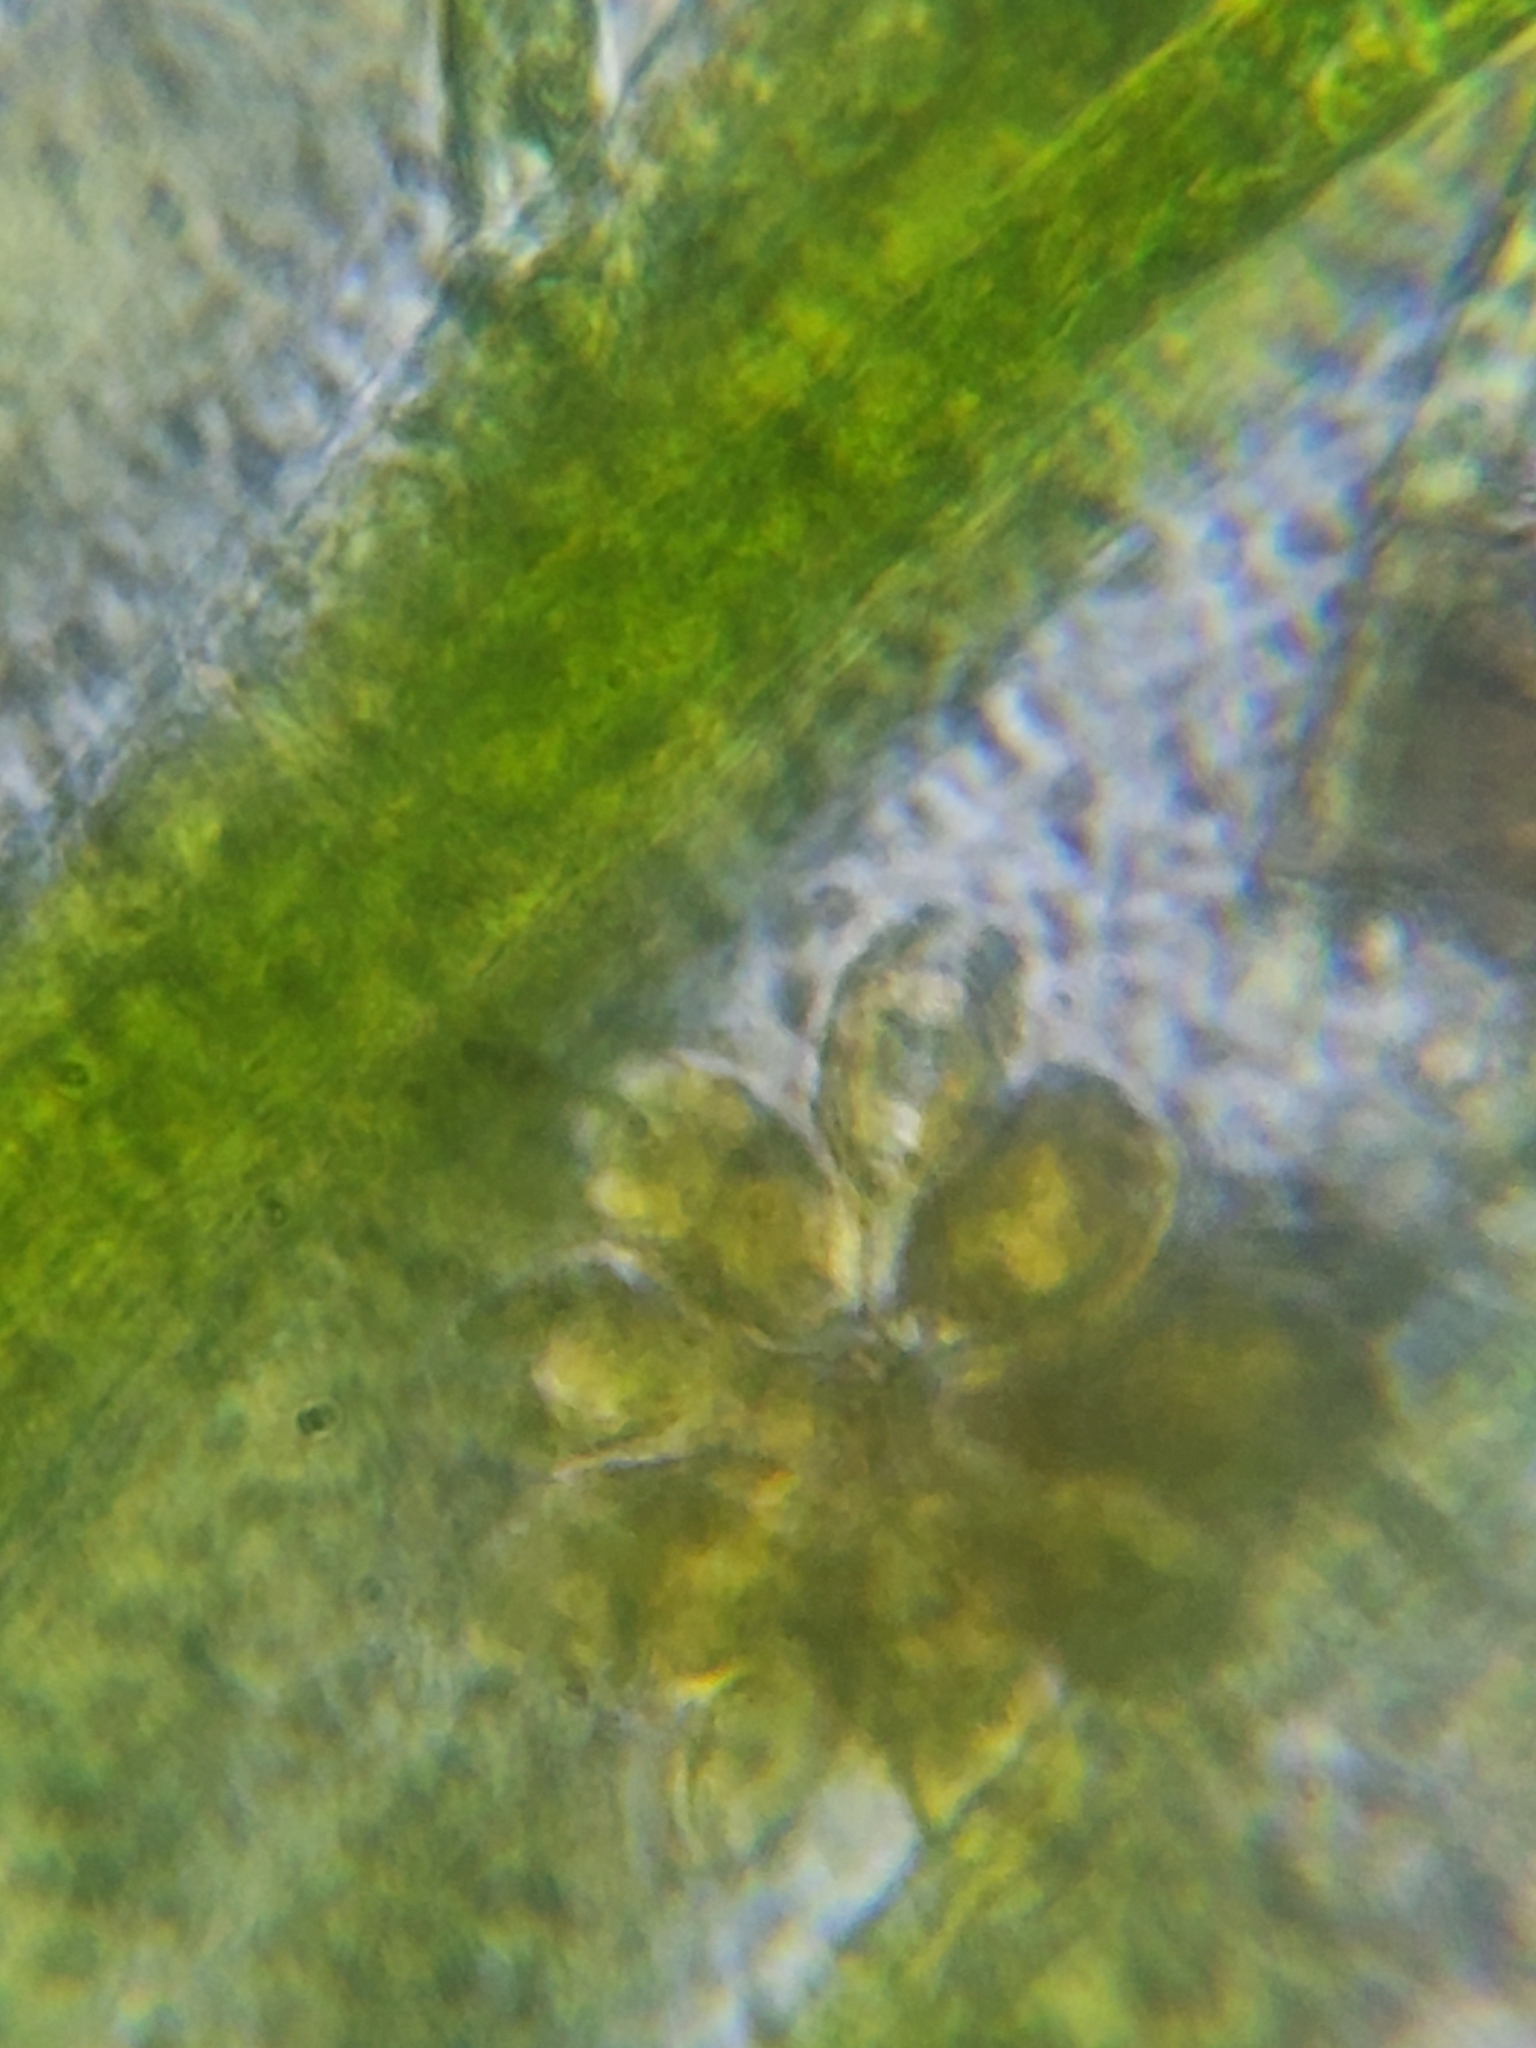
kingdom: Chromista
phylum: Ochrophyta
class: Synurophyceae
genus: Synura
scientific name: Synura
